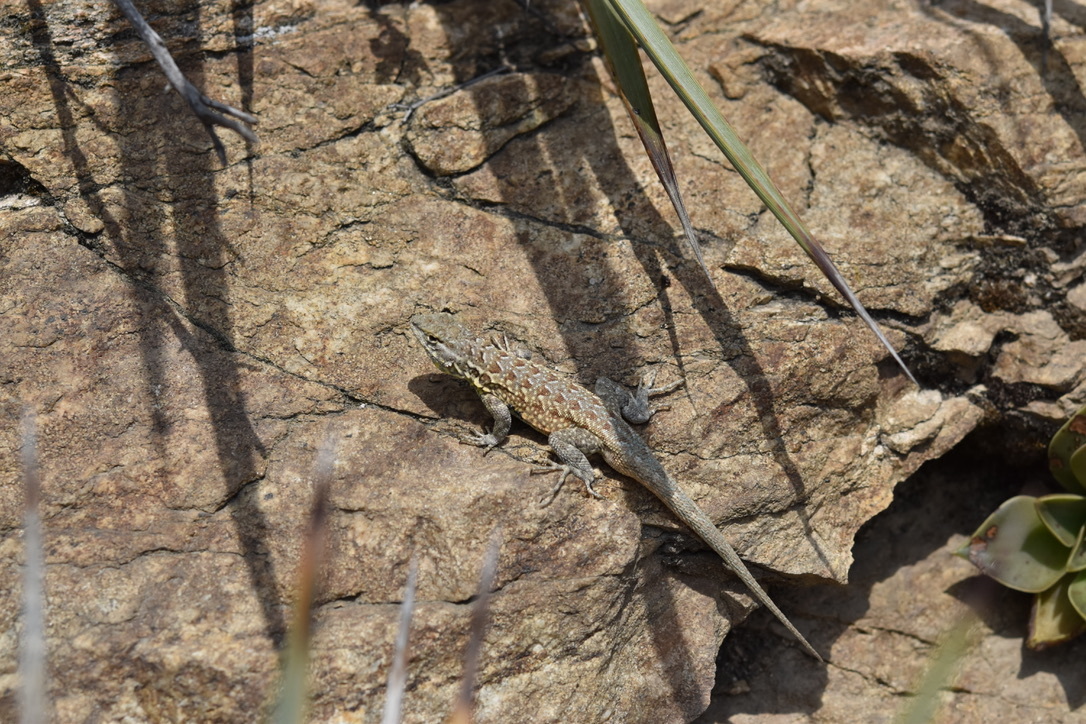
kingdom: Animalia
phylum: Chordata
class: Squamata
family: Phrynosomatidae
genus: Uta
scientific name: Uta stansburiana
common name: Side-blotched lizard
